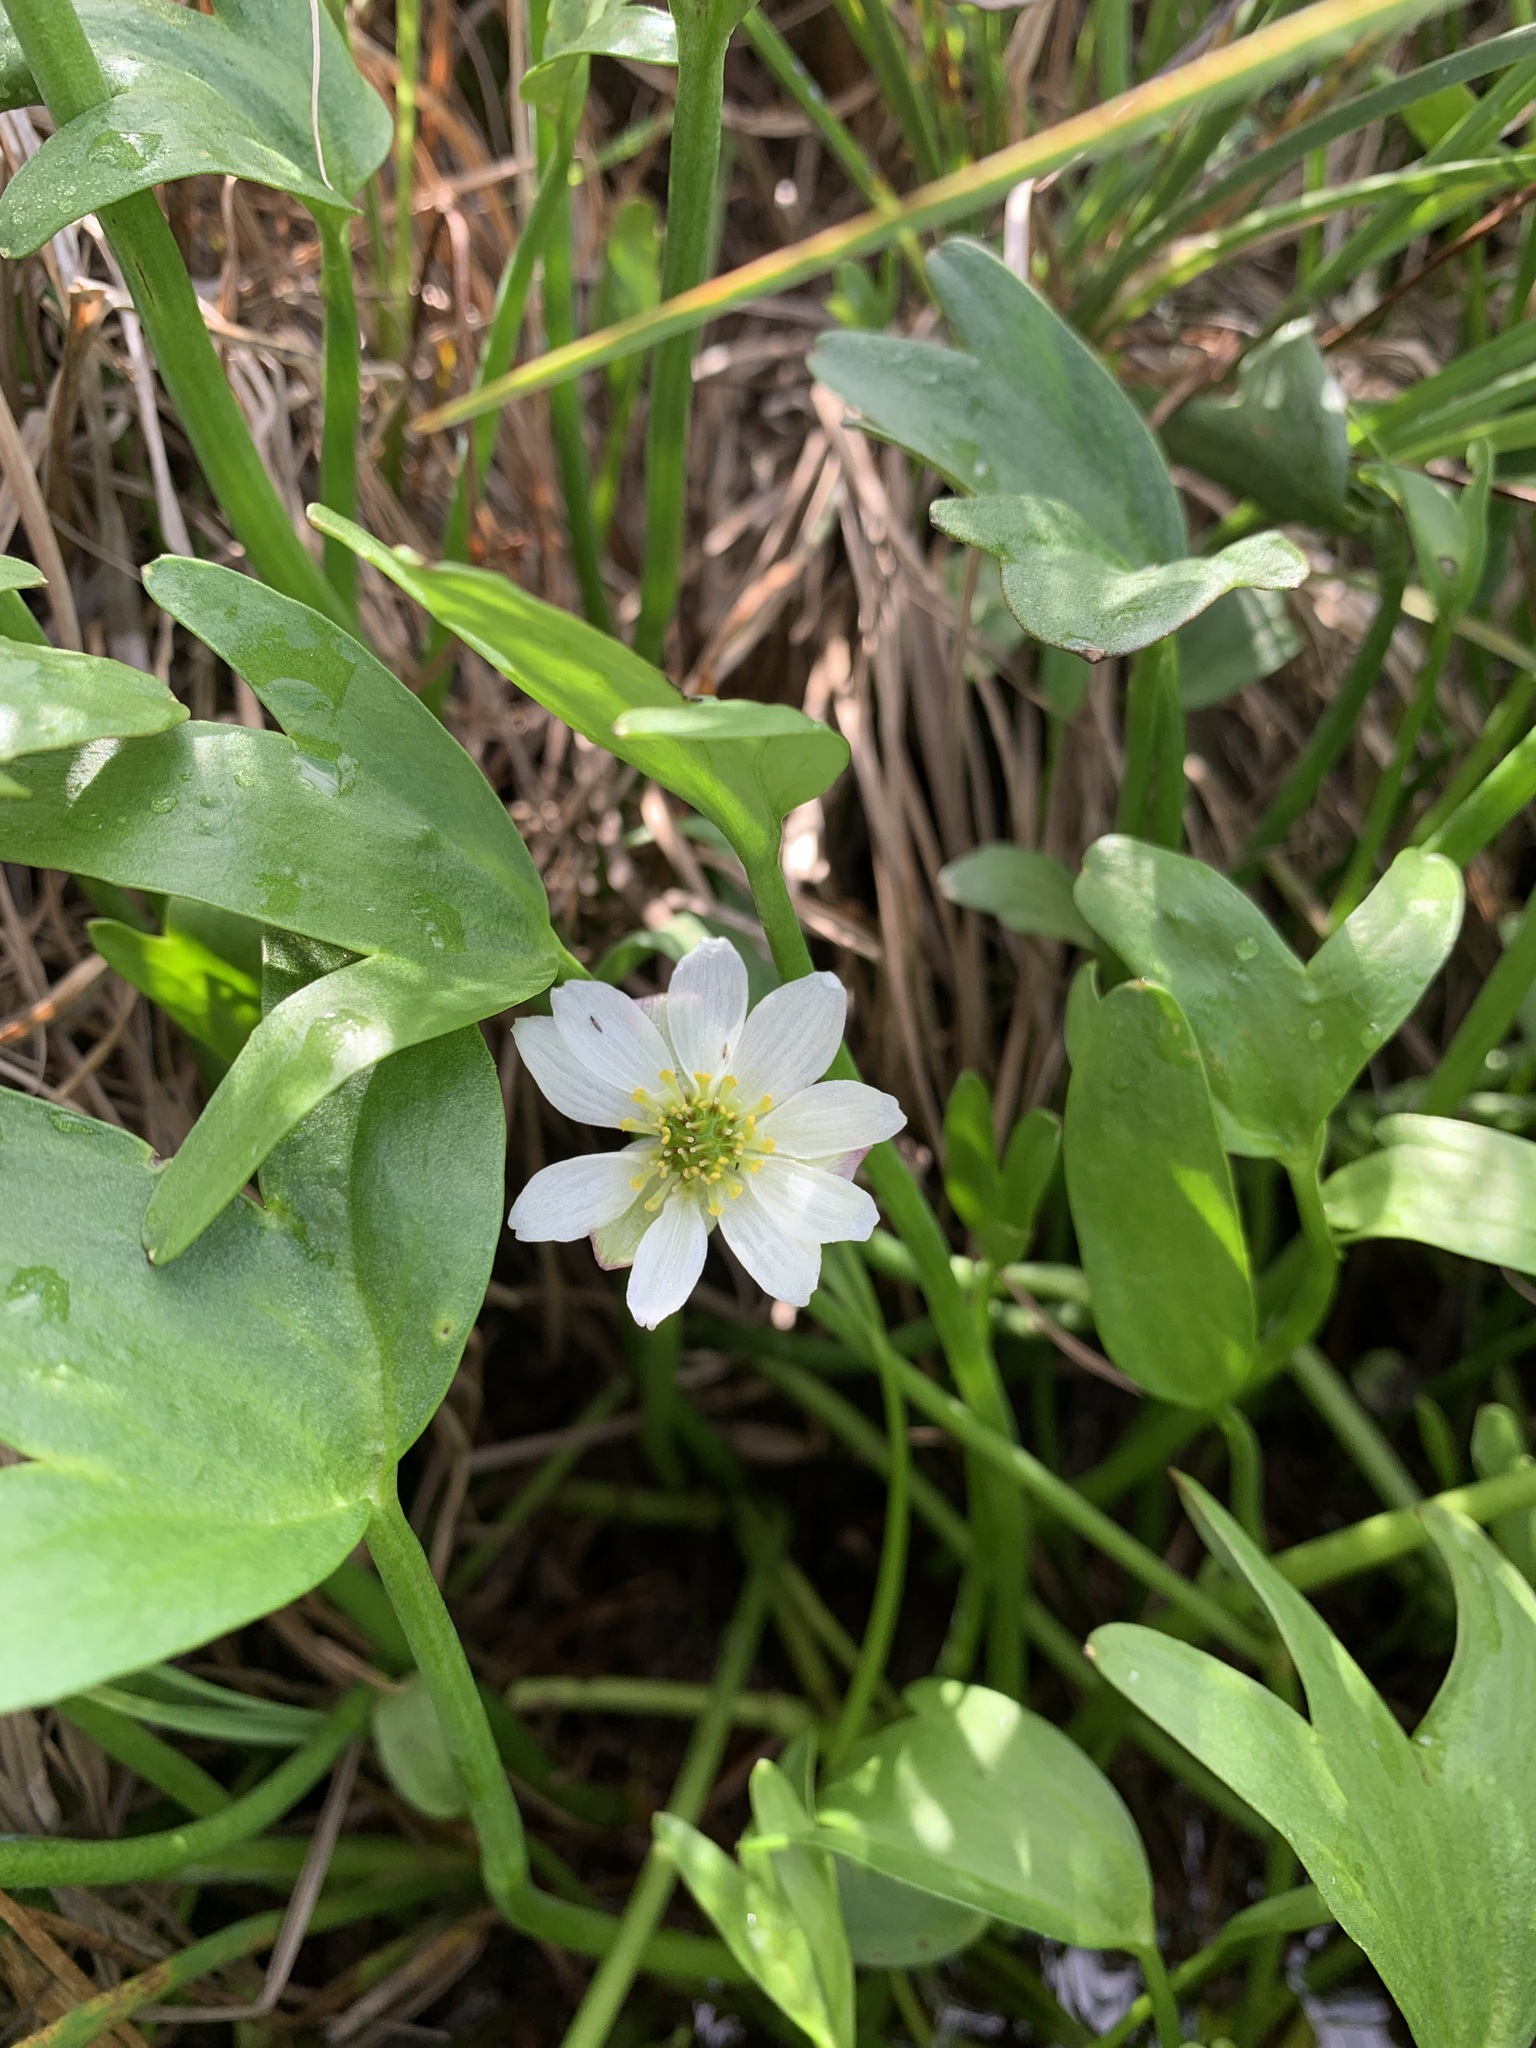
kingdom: Plantae
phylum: Tracheophyta
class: Magnoliopsida
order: Ranunculales
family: Ranunculaceae
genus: Coptidium
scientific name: Coptidium pallasii
